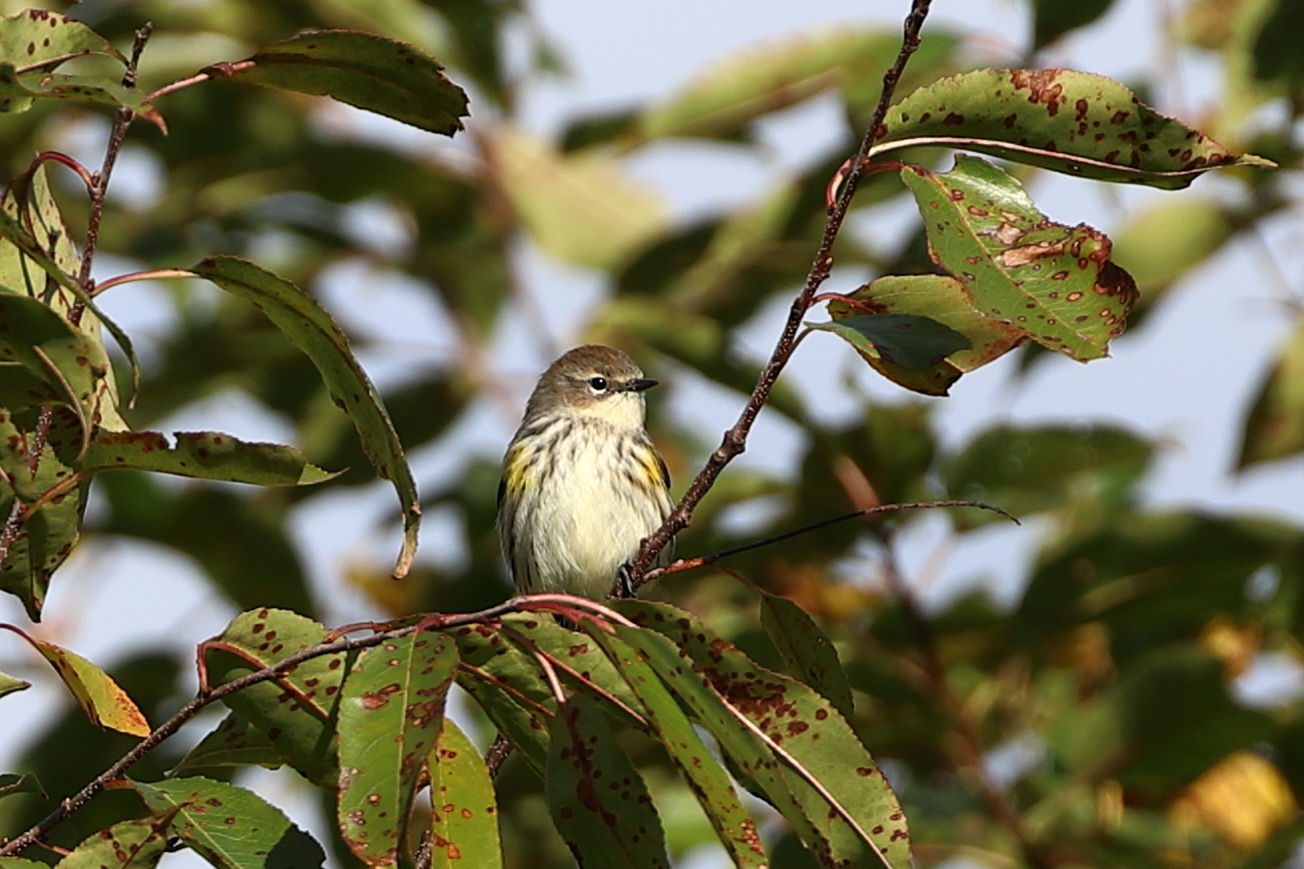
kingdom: Animalia
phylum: Chordata
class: Aves
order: Passeriformes
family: Parulidae
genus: Setophaga
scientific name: Setophaga coronata
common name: Myrtle warbler
